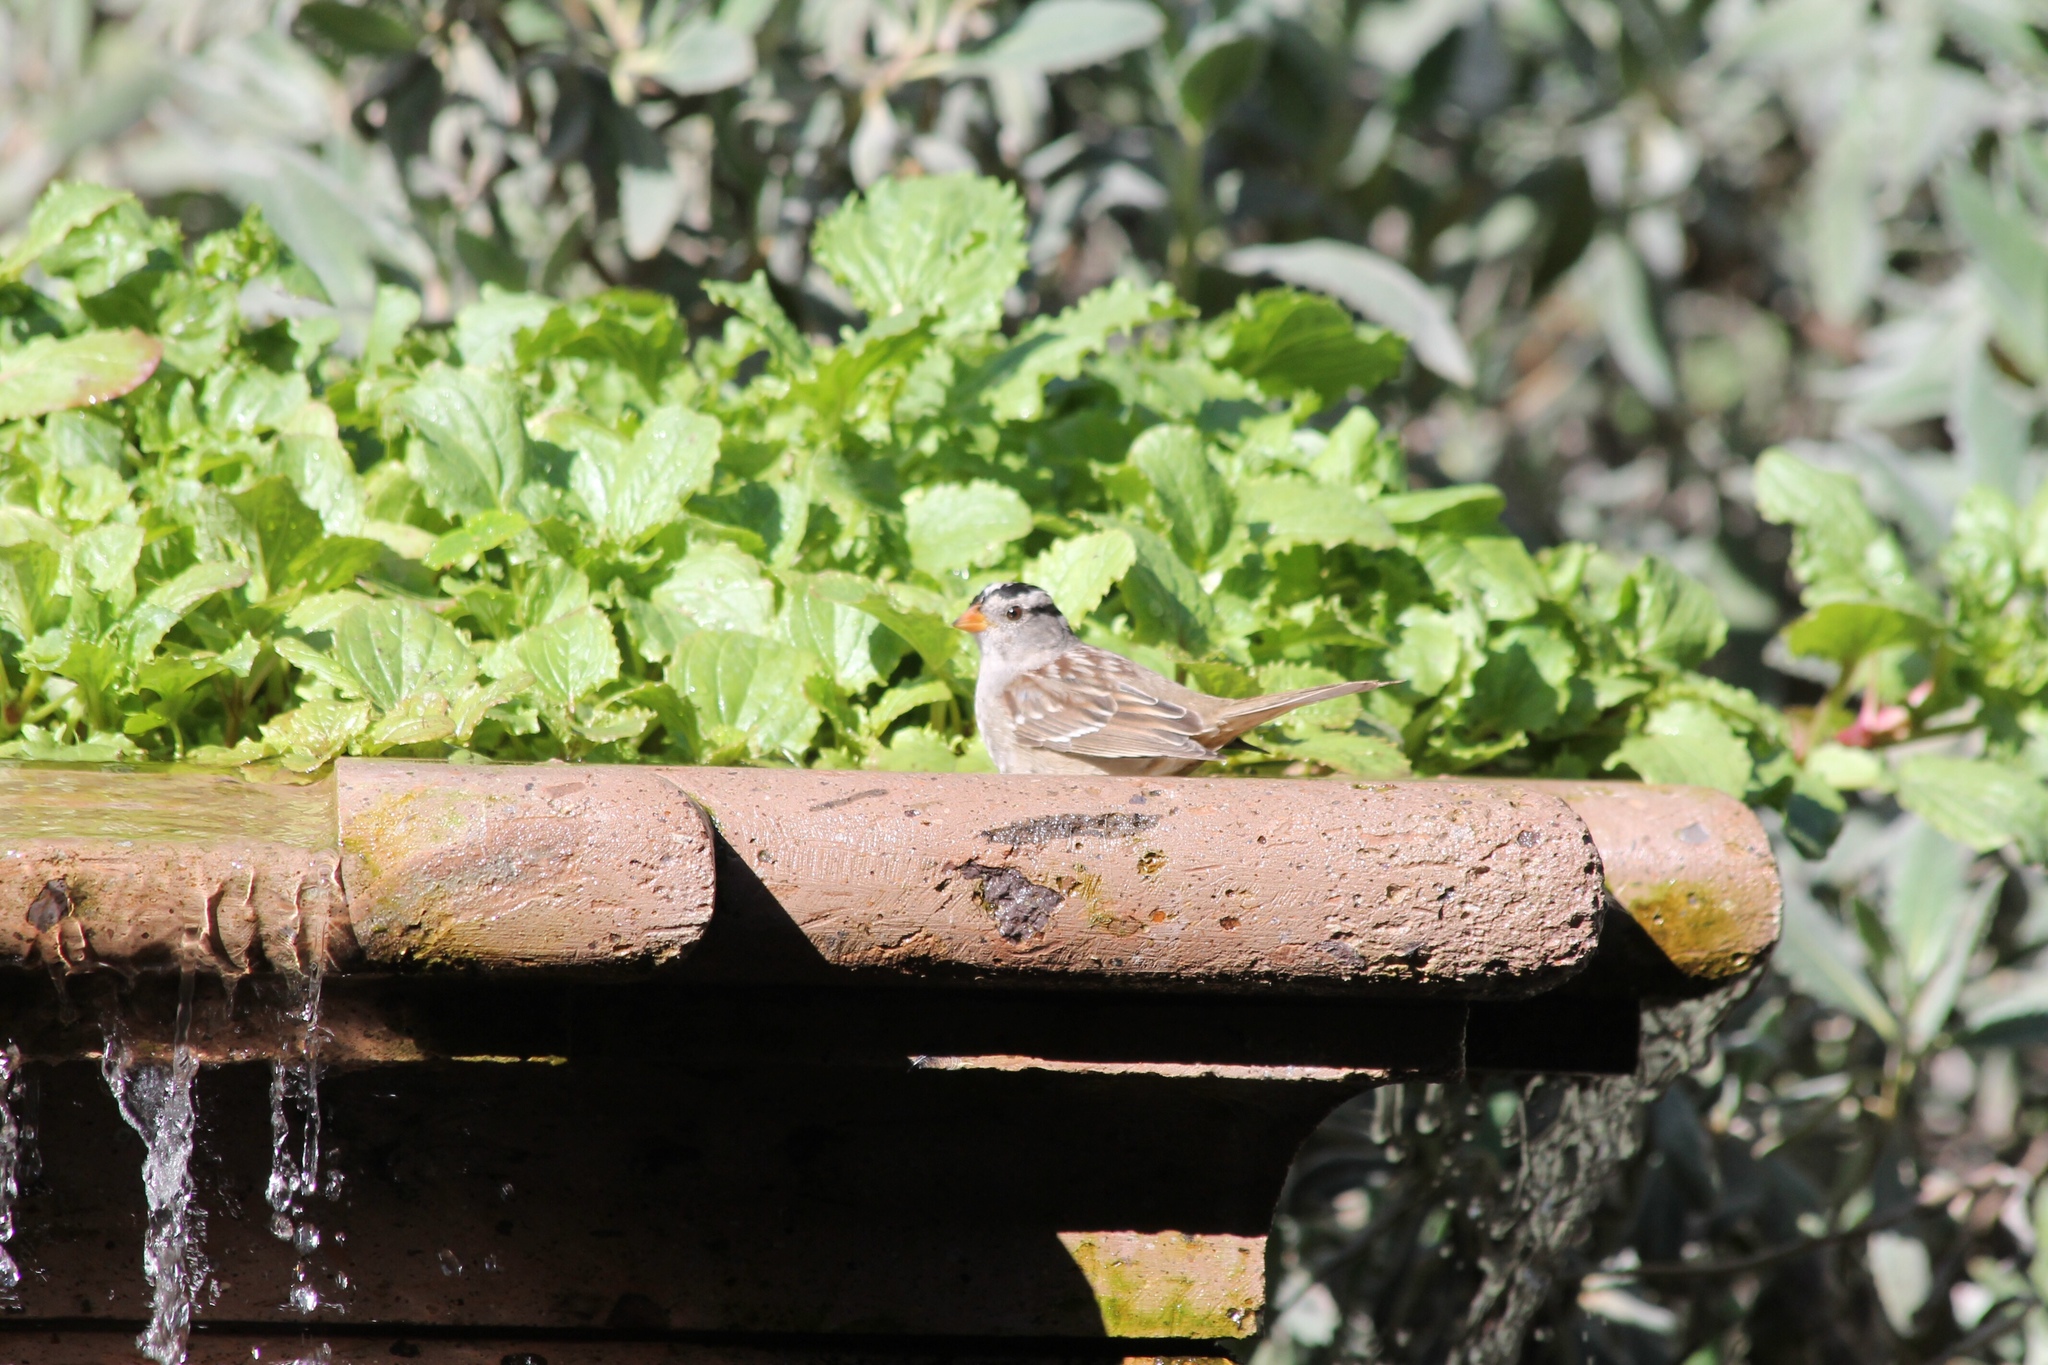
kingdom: Animalia
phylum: Chordata
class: Aves
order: Passeriformes
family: Passerellidae
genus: Zonotrichia
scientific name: Zonotrichia leucophrys
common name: White-crowned sparrow
